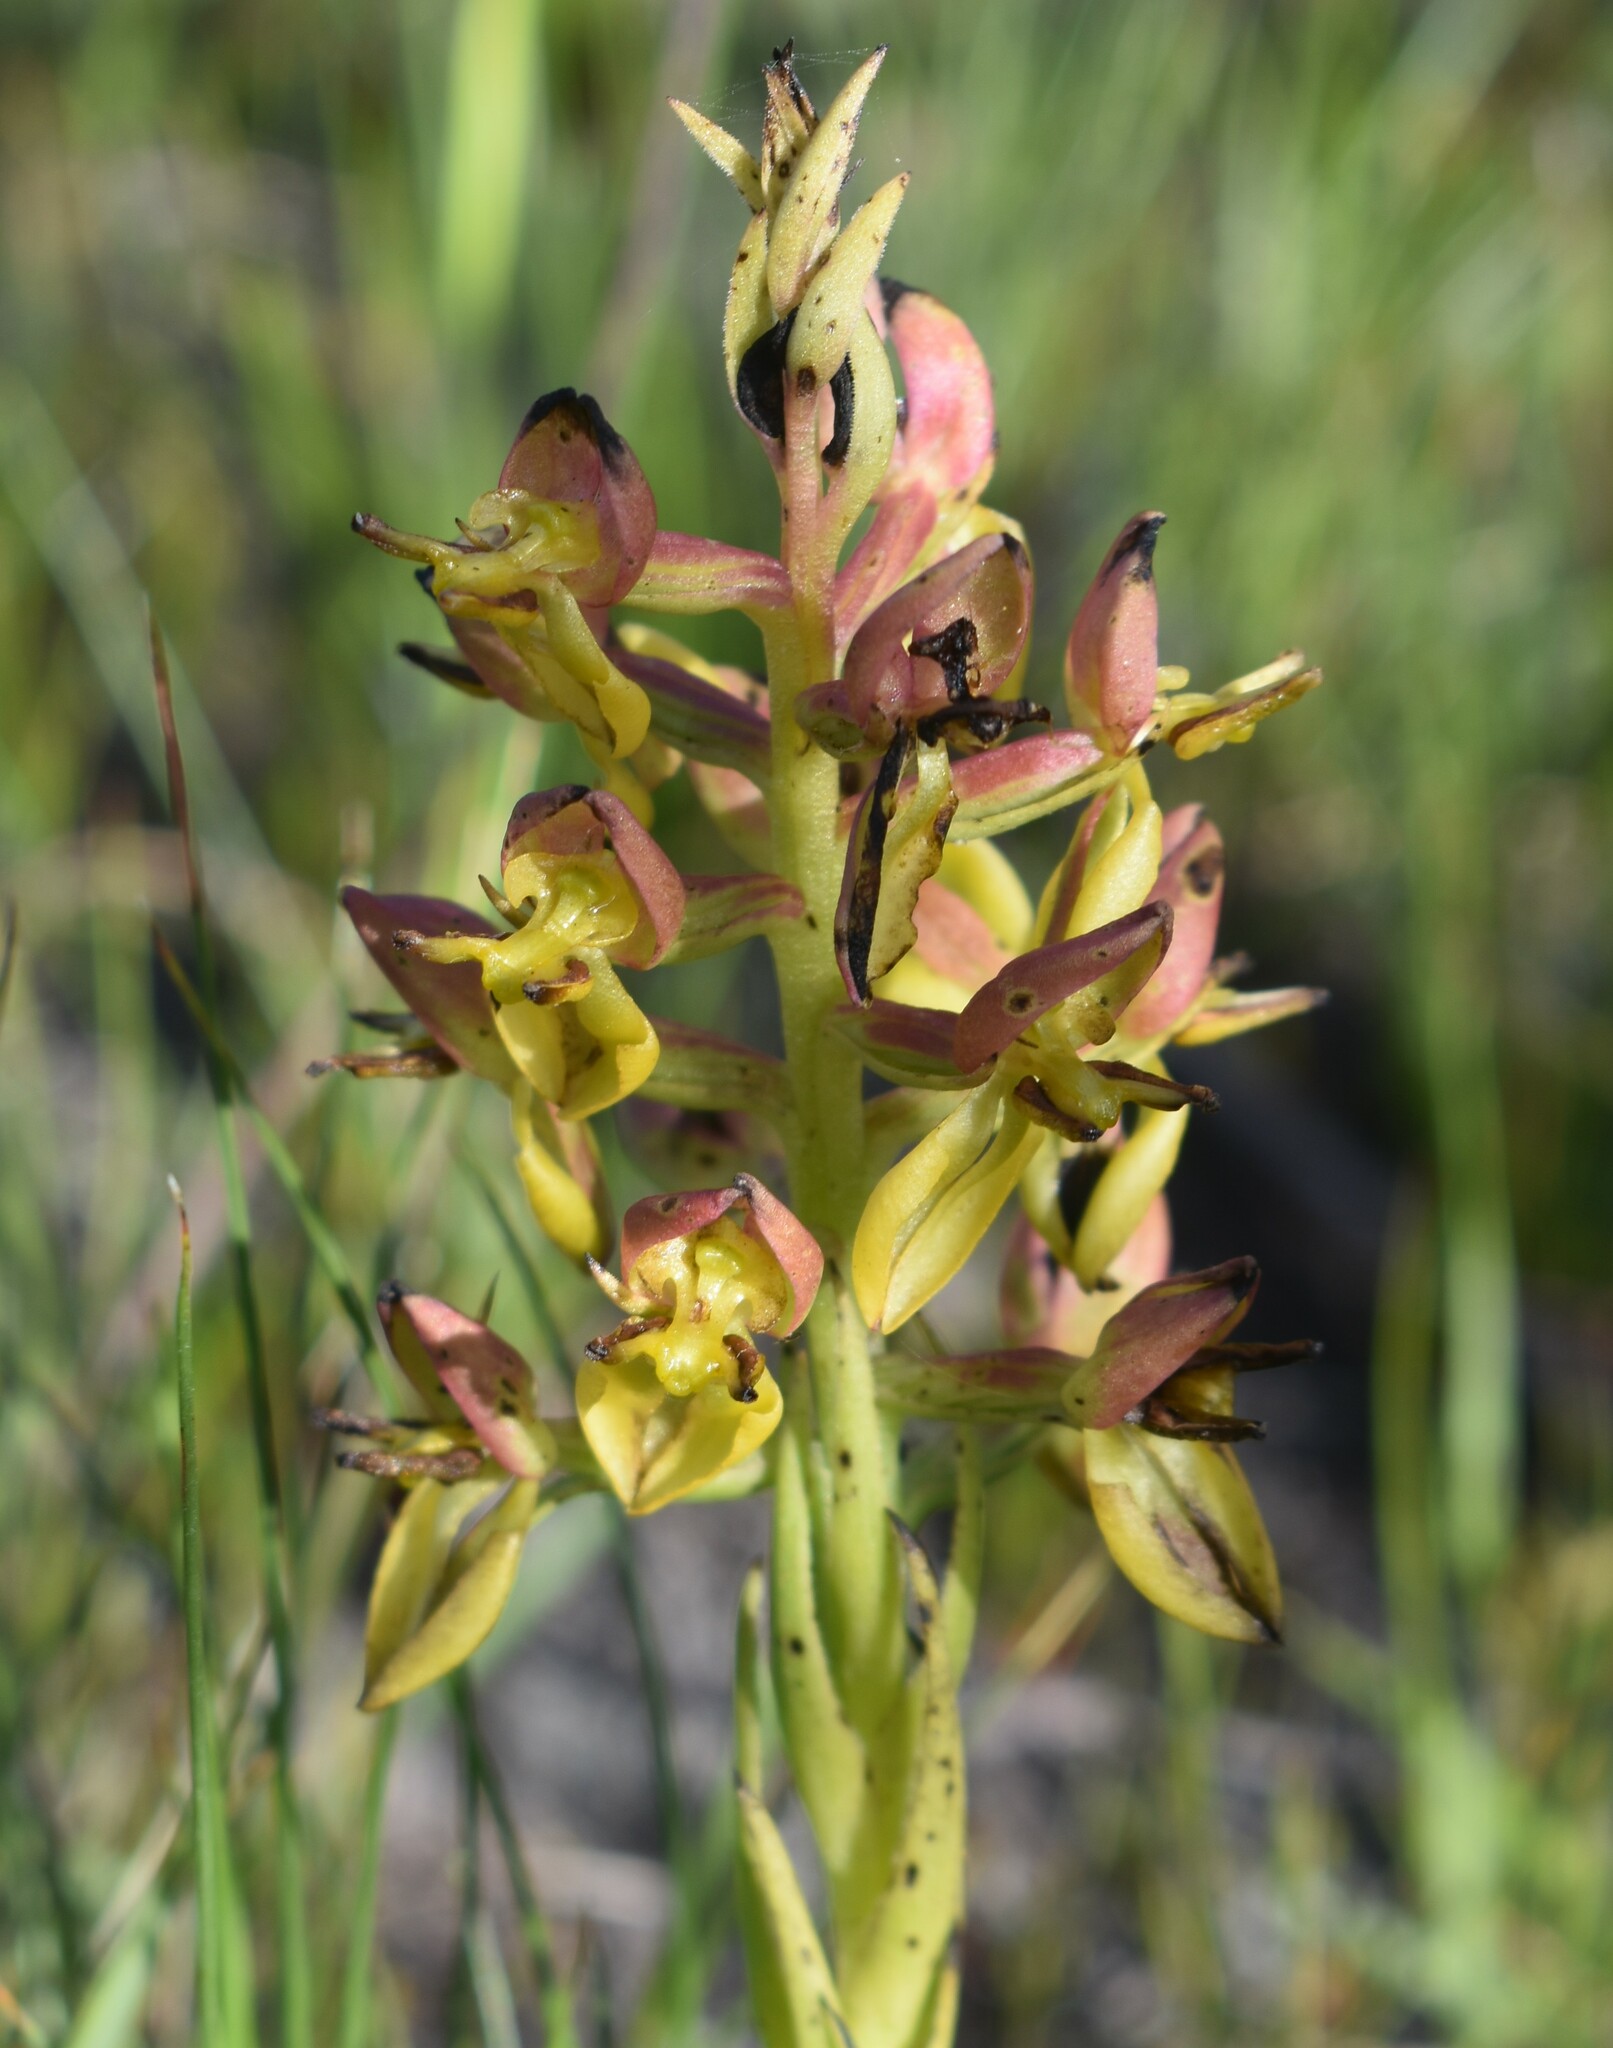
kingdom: Plantae
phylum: Tracheophyta
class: Liliopsida
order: Asparagales
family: Orchidaceae
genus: Ceratandra
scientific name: Ceratandra atrata
